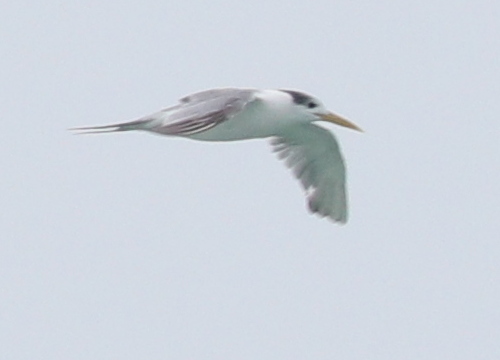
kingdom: Animalia
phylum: Chordata
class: Aves
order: Charadriiformes
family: Laridae
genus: Thalasseus
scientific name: Thalasseus bergii
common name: Greater crested tern
